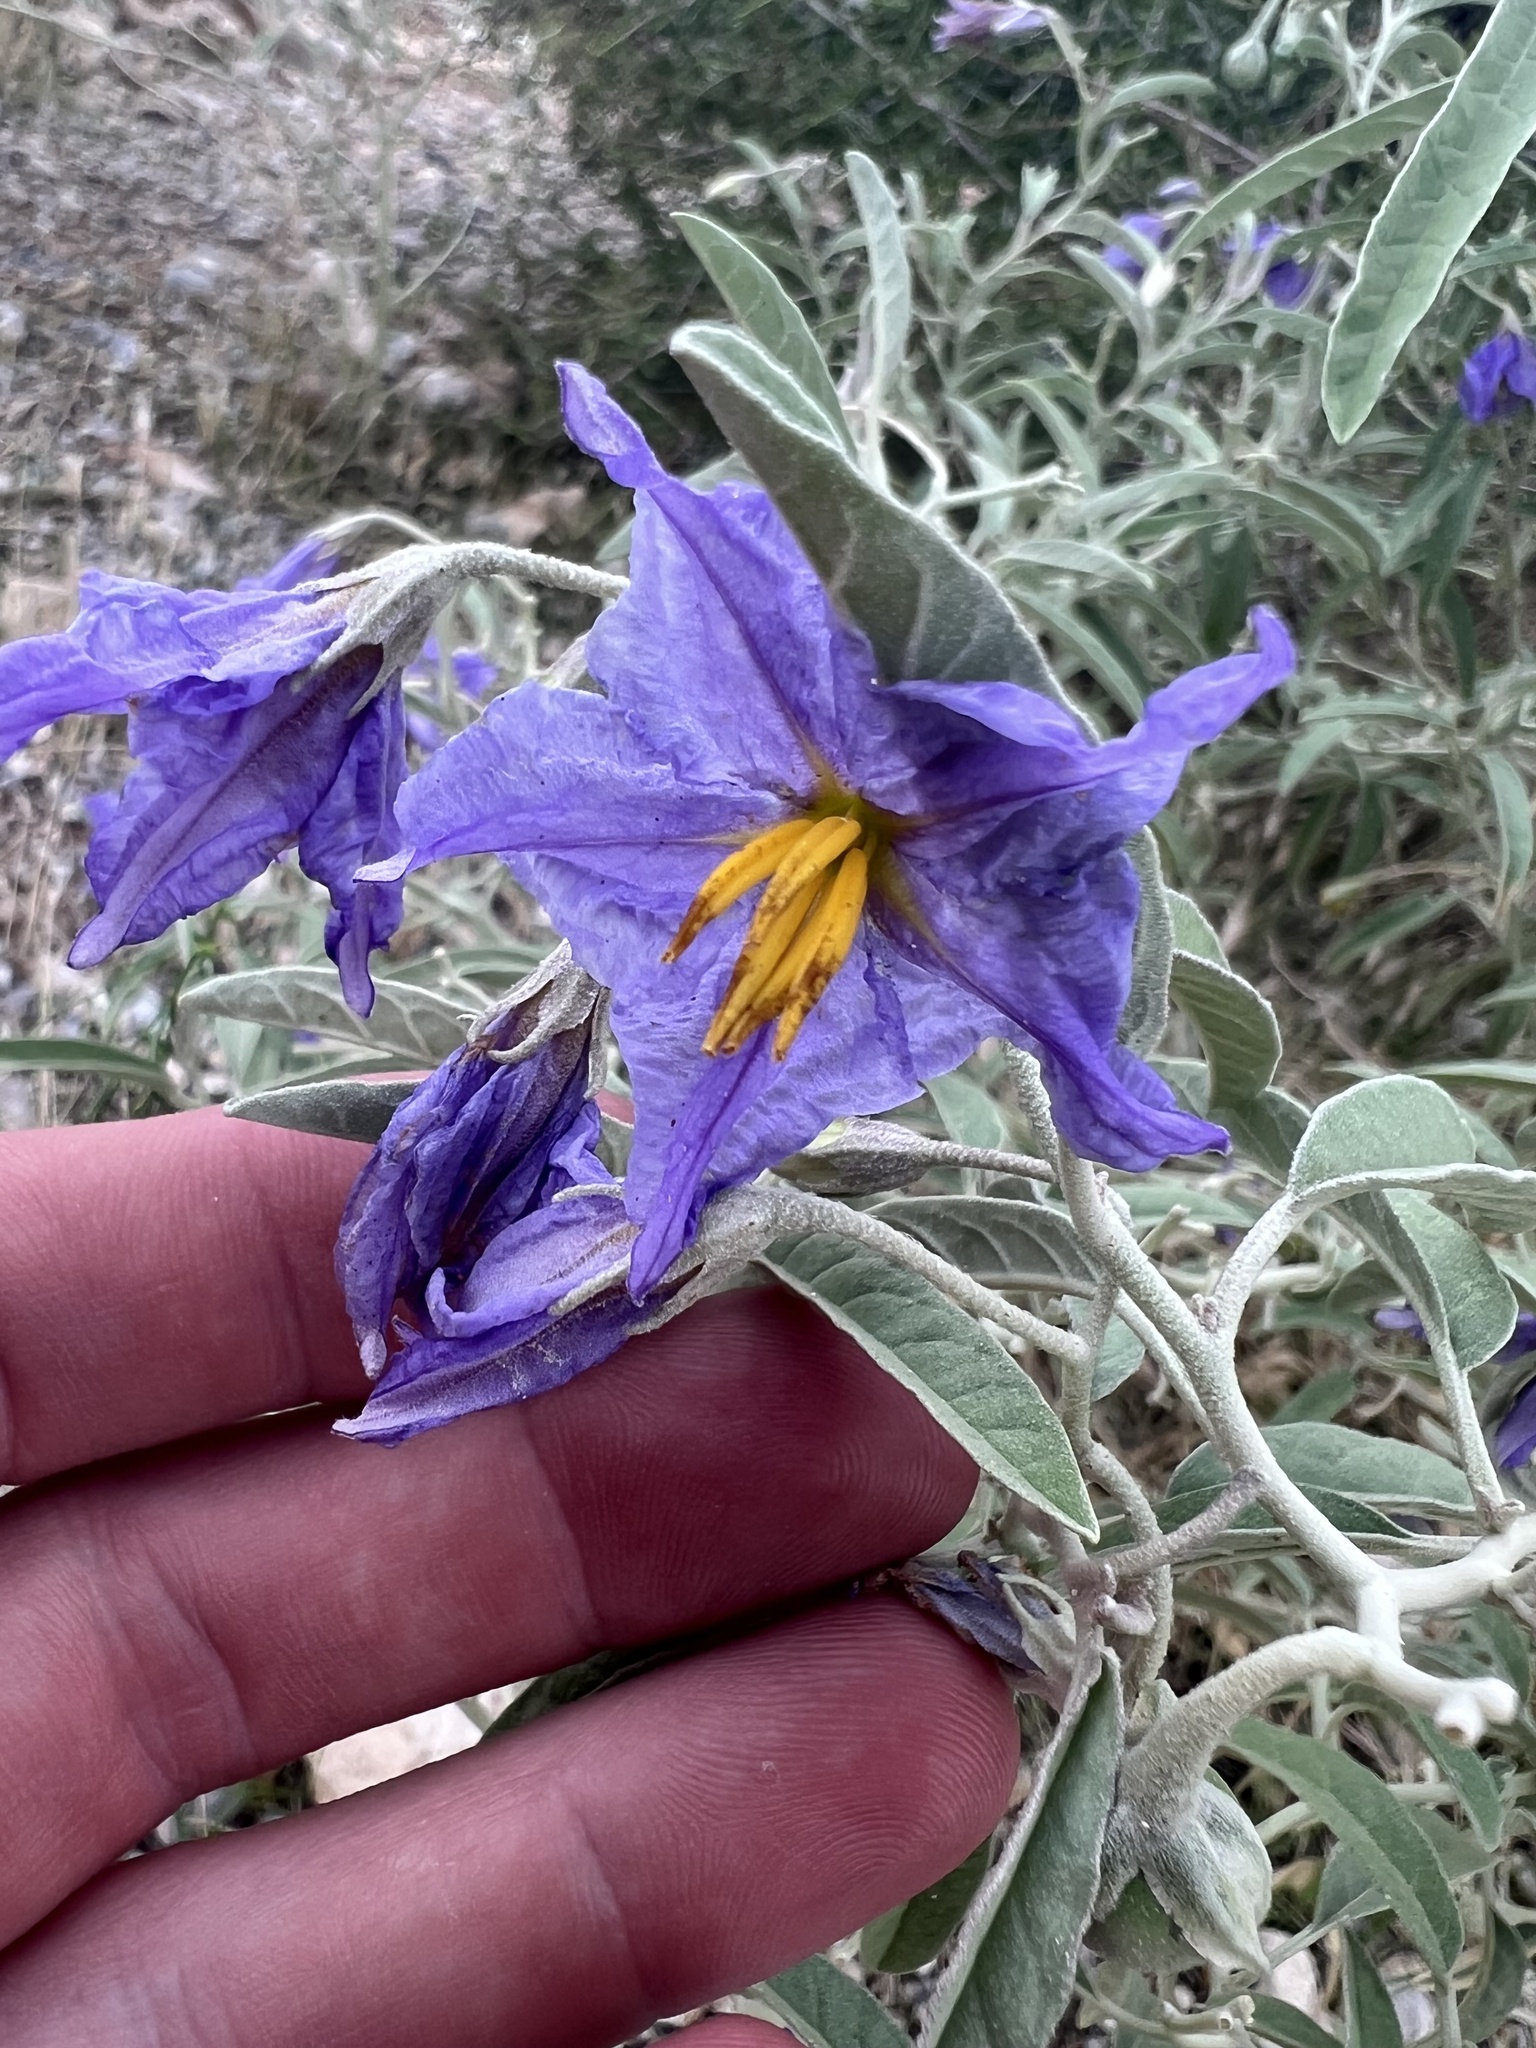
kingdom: Plantae
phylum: Tracheophyta
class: Magnoliopsida
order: Solanales
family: Solanaceae
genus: Solanum
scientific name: Solanum elaeagnifolium
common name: Silverleaf nightshade
